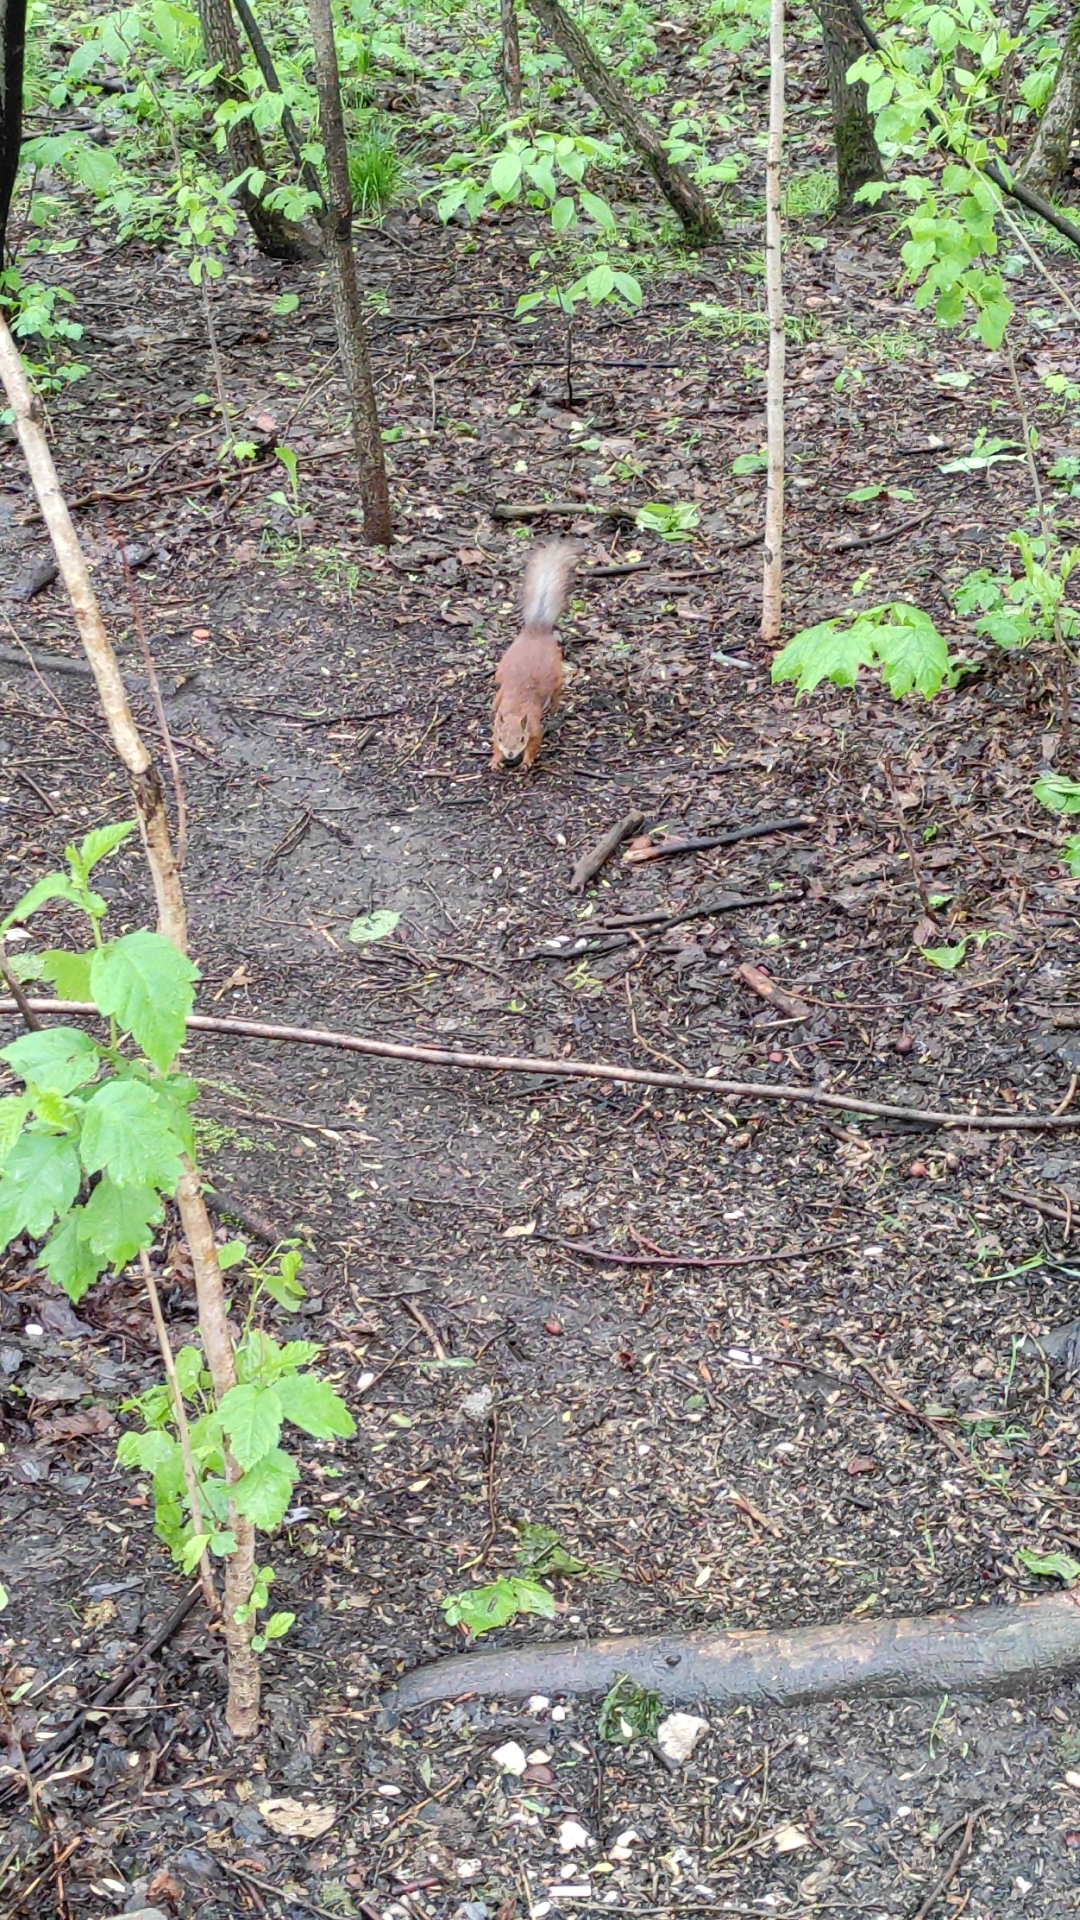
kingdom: Animalia
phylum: Chordata
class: Mammalia
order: Rodentia
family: Sciuridae
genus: Sciurus
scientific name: Sciurus vulgaris
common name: Eurasian red squirrel
